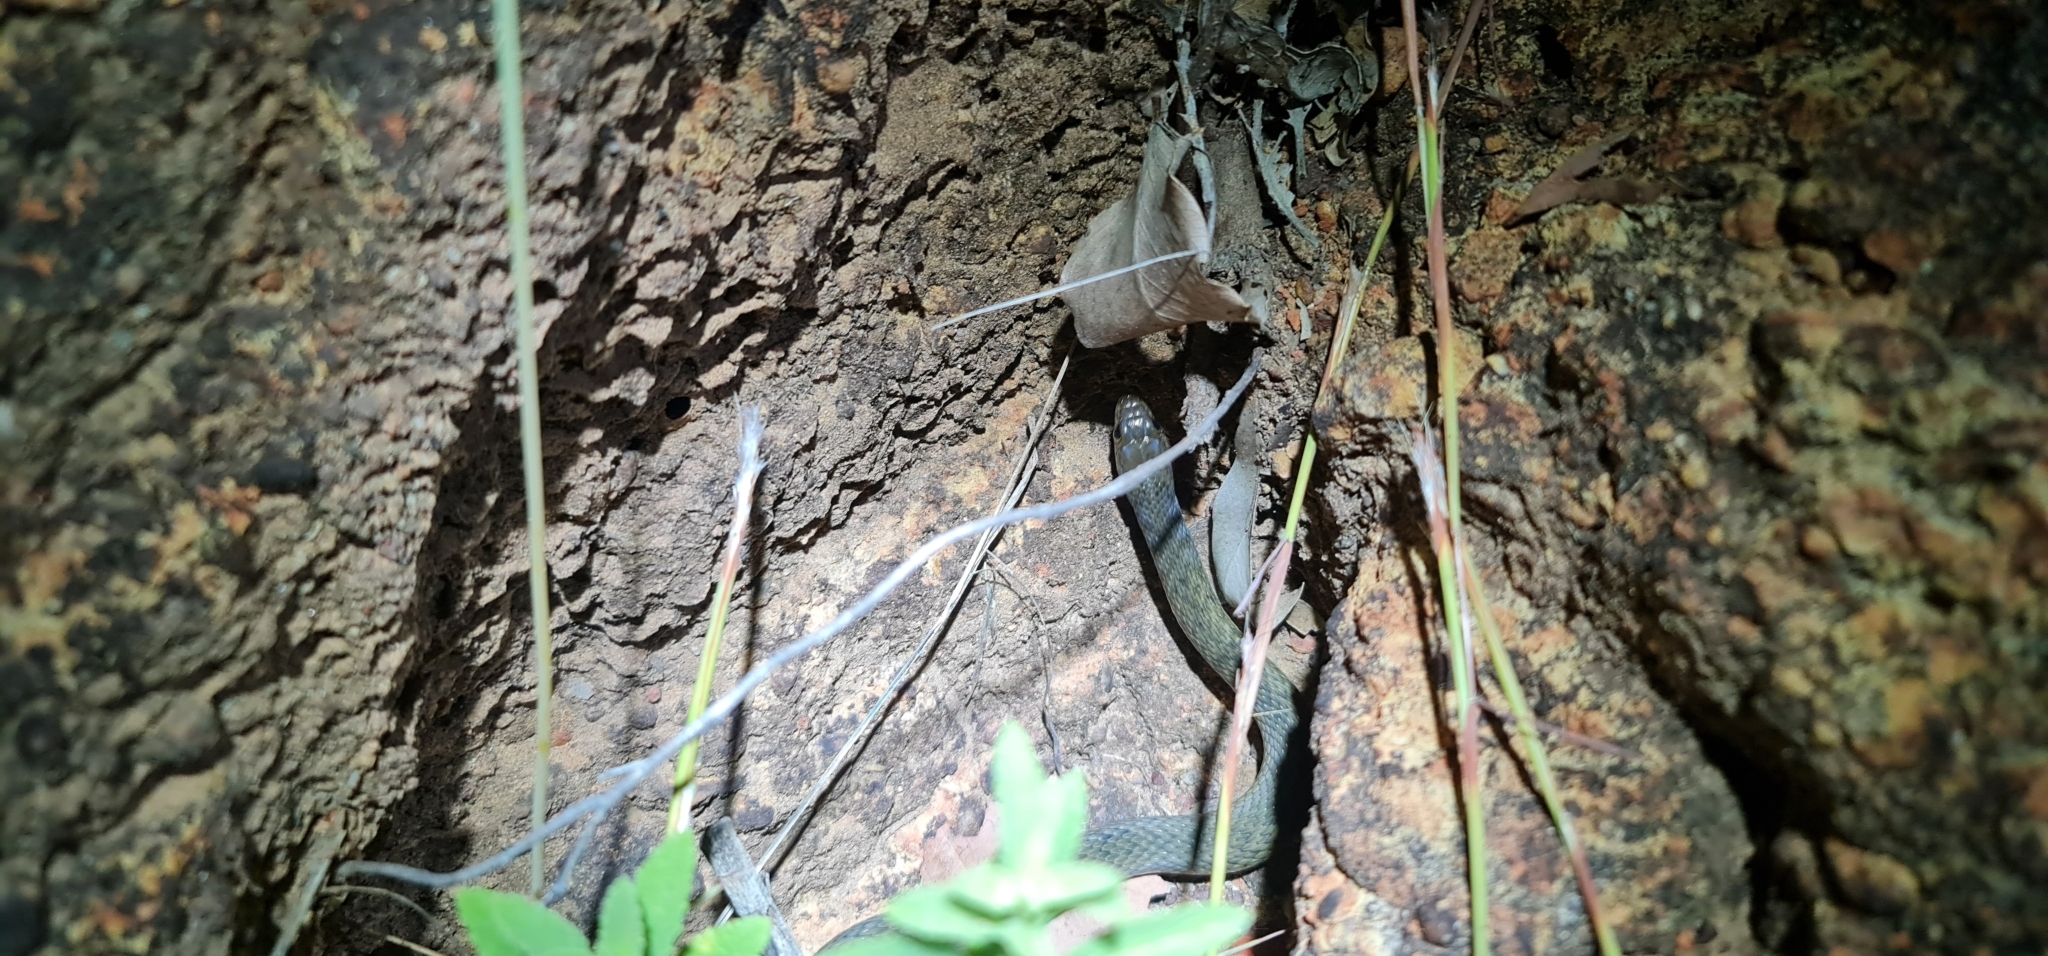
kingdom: Animalia
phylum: Chordata
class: Squamata
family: Colubridae
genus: Tropidonophis
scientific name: Tropidonophis mairii
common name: Common keelback
